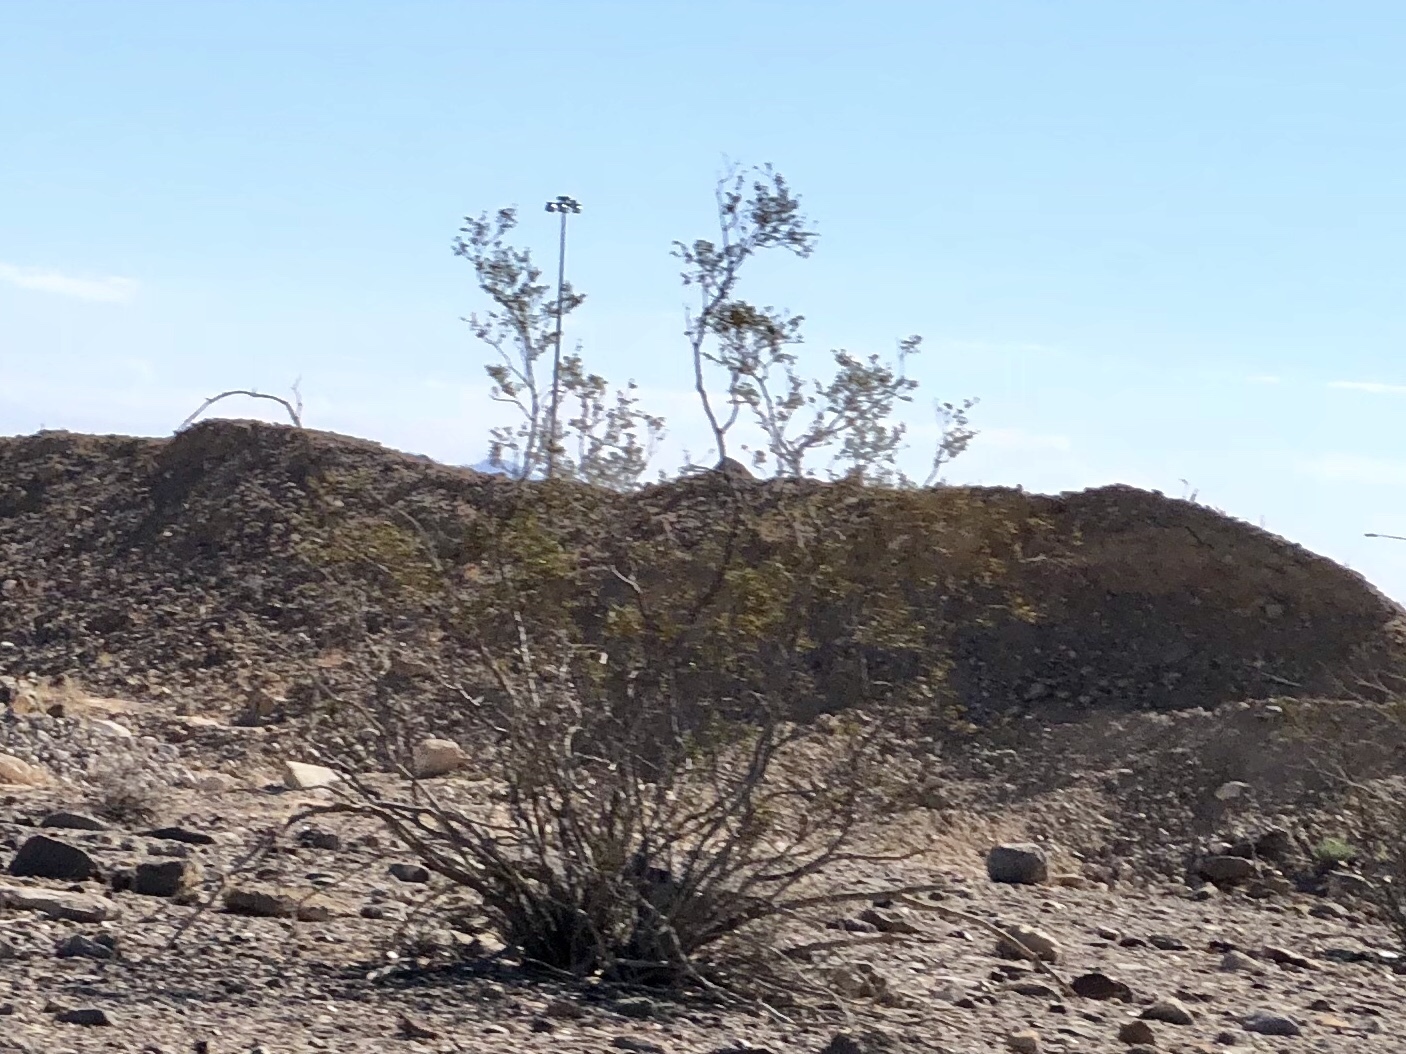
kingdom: Plantae
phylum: Tracheophyta
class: Magnoliopsida
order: Zygophyllales
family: Zygophyllaceae
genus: Larrea
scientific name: Larrea tridentata
